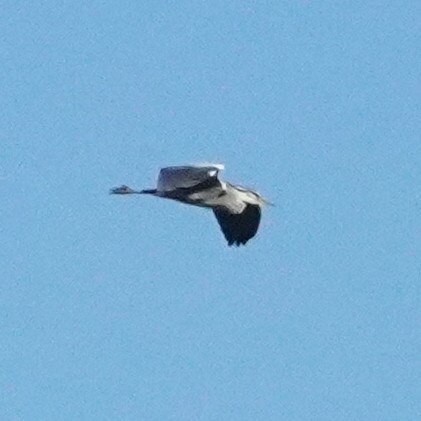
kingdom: Animalia
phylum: Chordata
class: Aves
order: Pelecaniformes
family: Ardeidae
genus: Ardea
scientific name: Ardea cinerea
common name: Grey heron
